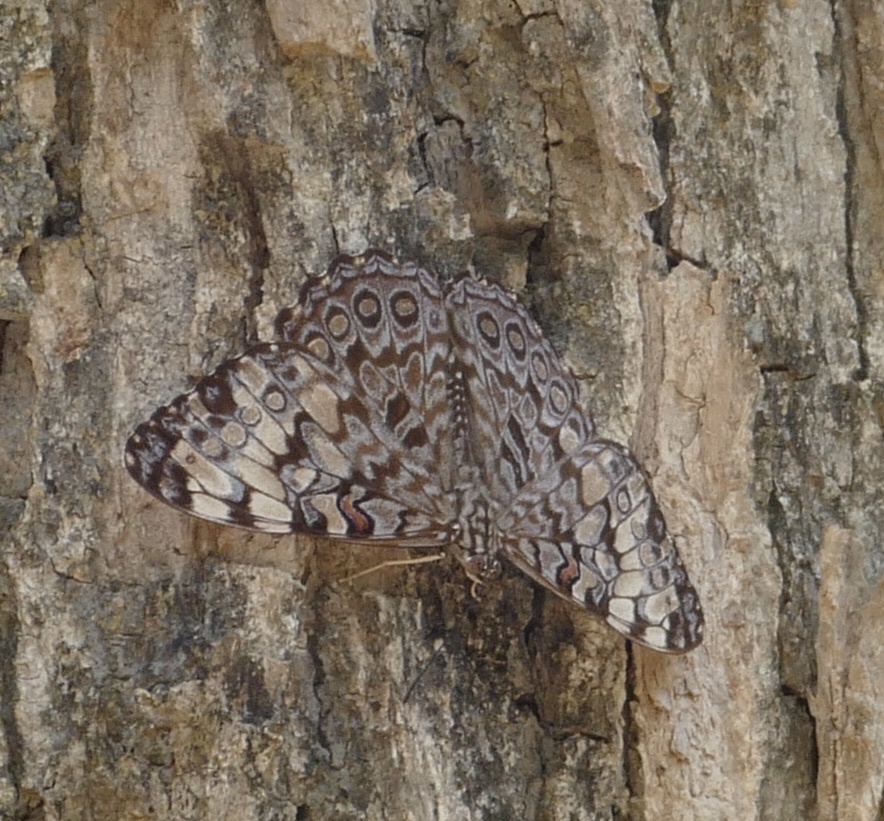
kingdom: Animalia
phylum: Arthropoda
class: Insecta
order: Lepidoptera
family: Nymphalidae
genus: Hamadryas
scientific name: Hamadryas guatemalena
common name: Guatemalan cracker
